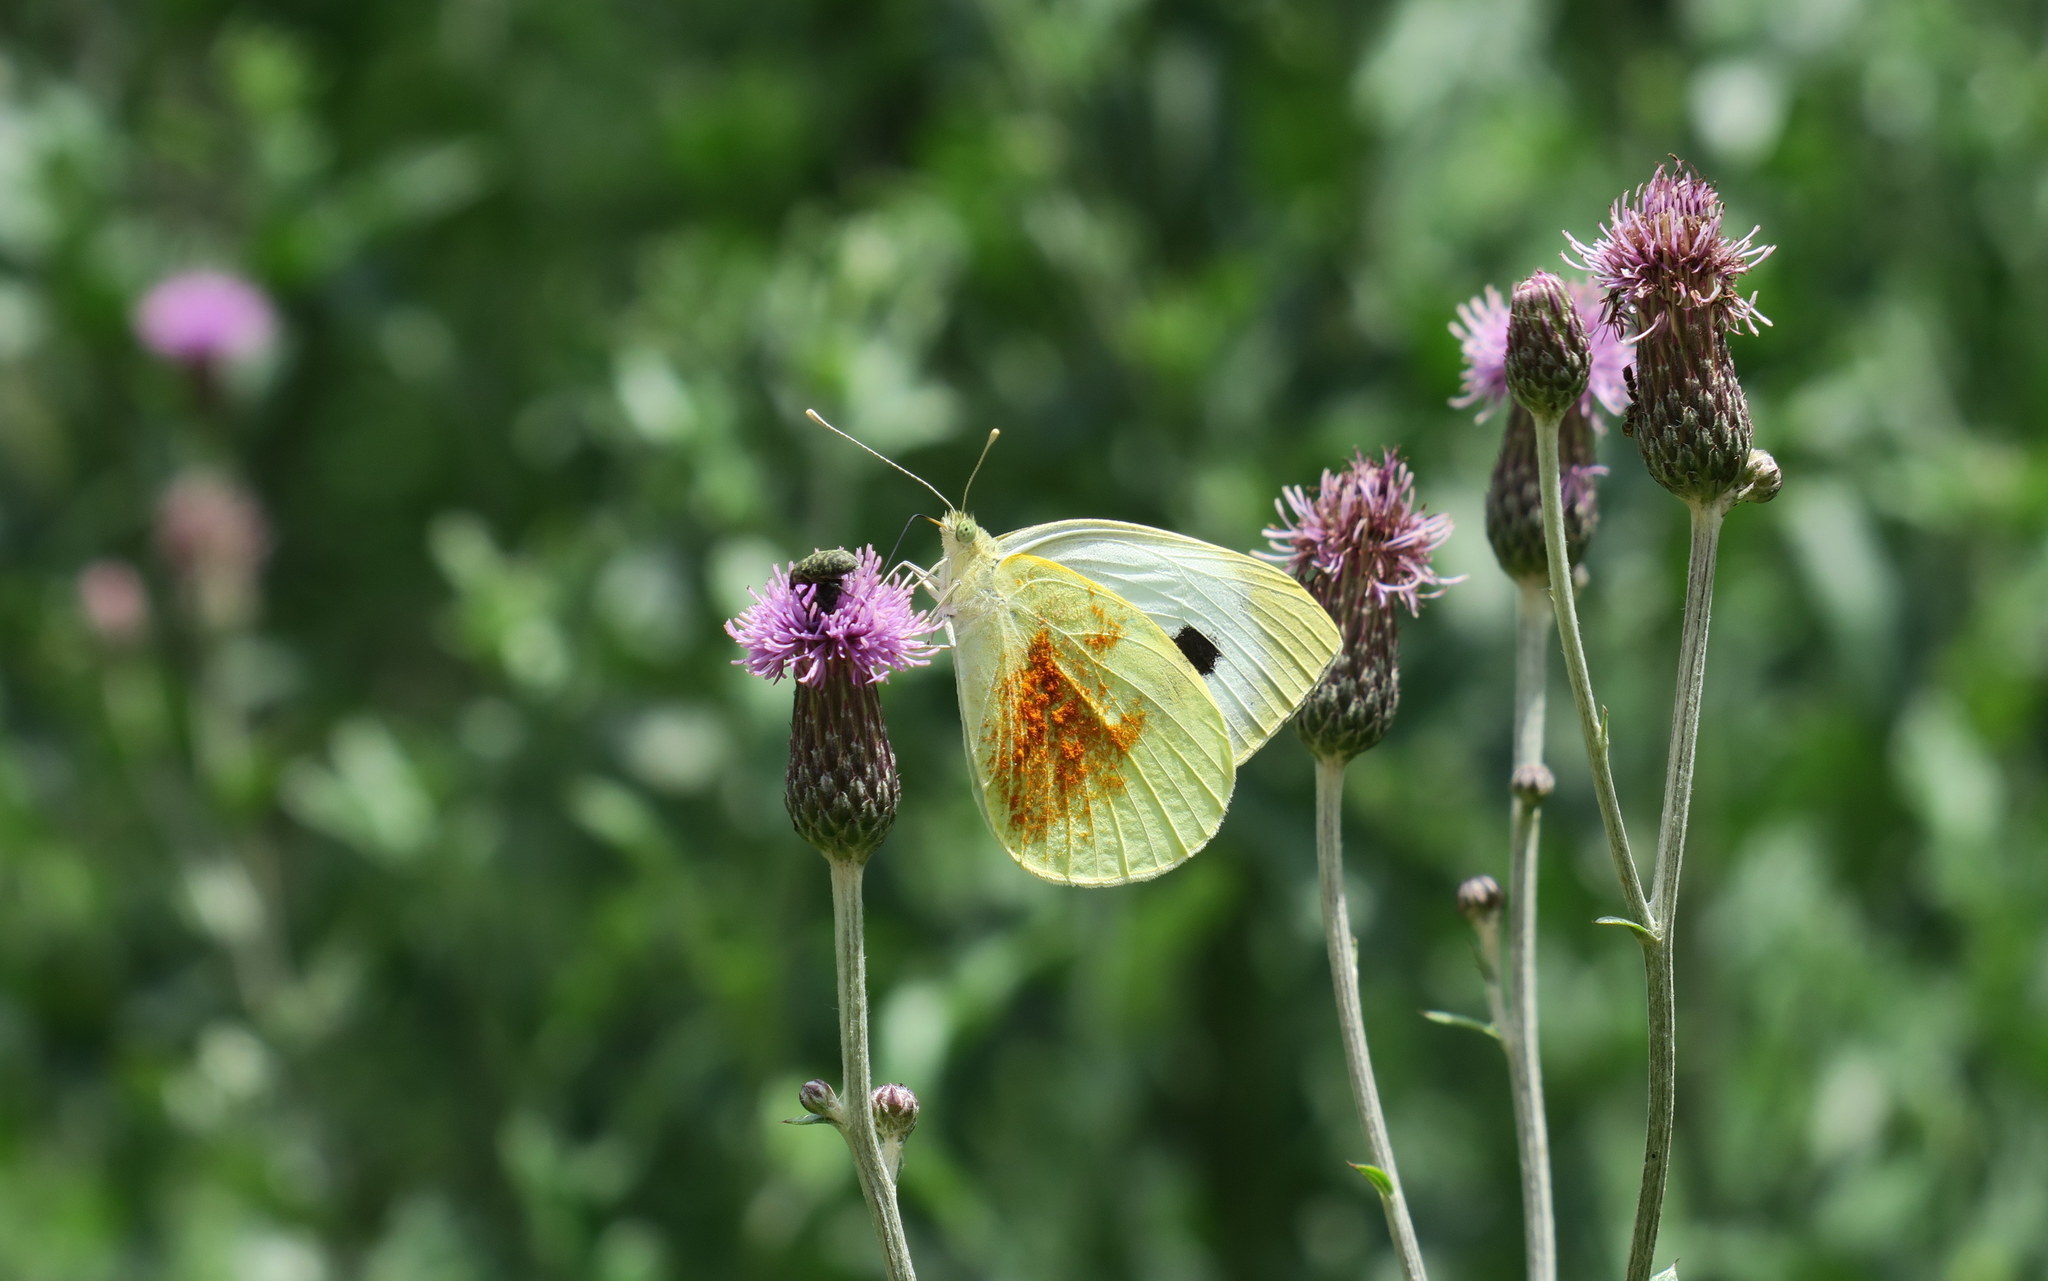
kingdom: Animalia
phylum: Arthropoda
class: Insecta
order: Lepidoptera
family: Pieridae
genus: Pieris
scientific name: Pieris brassicae
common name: Large white
